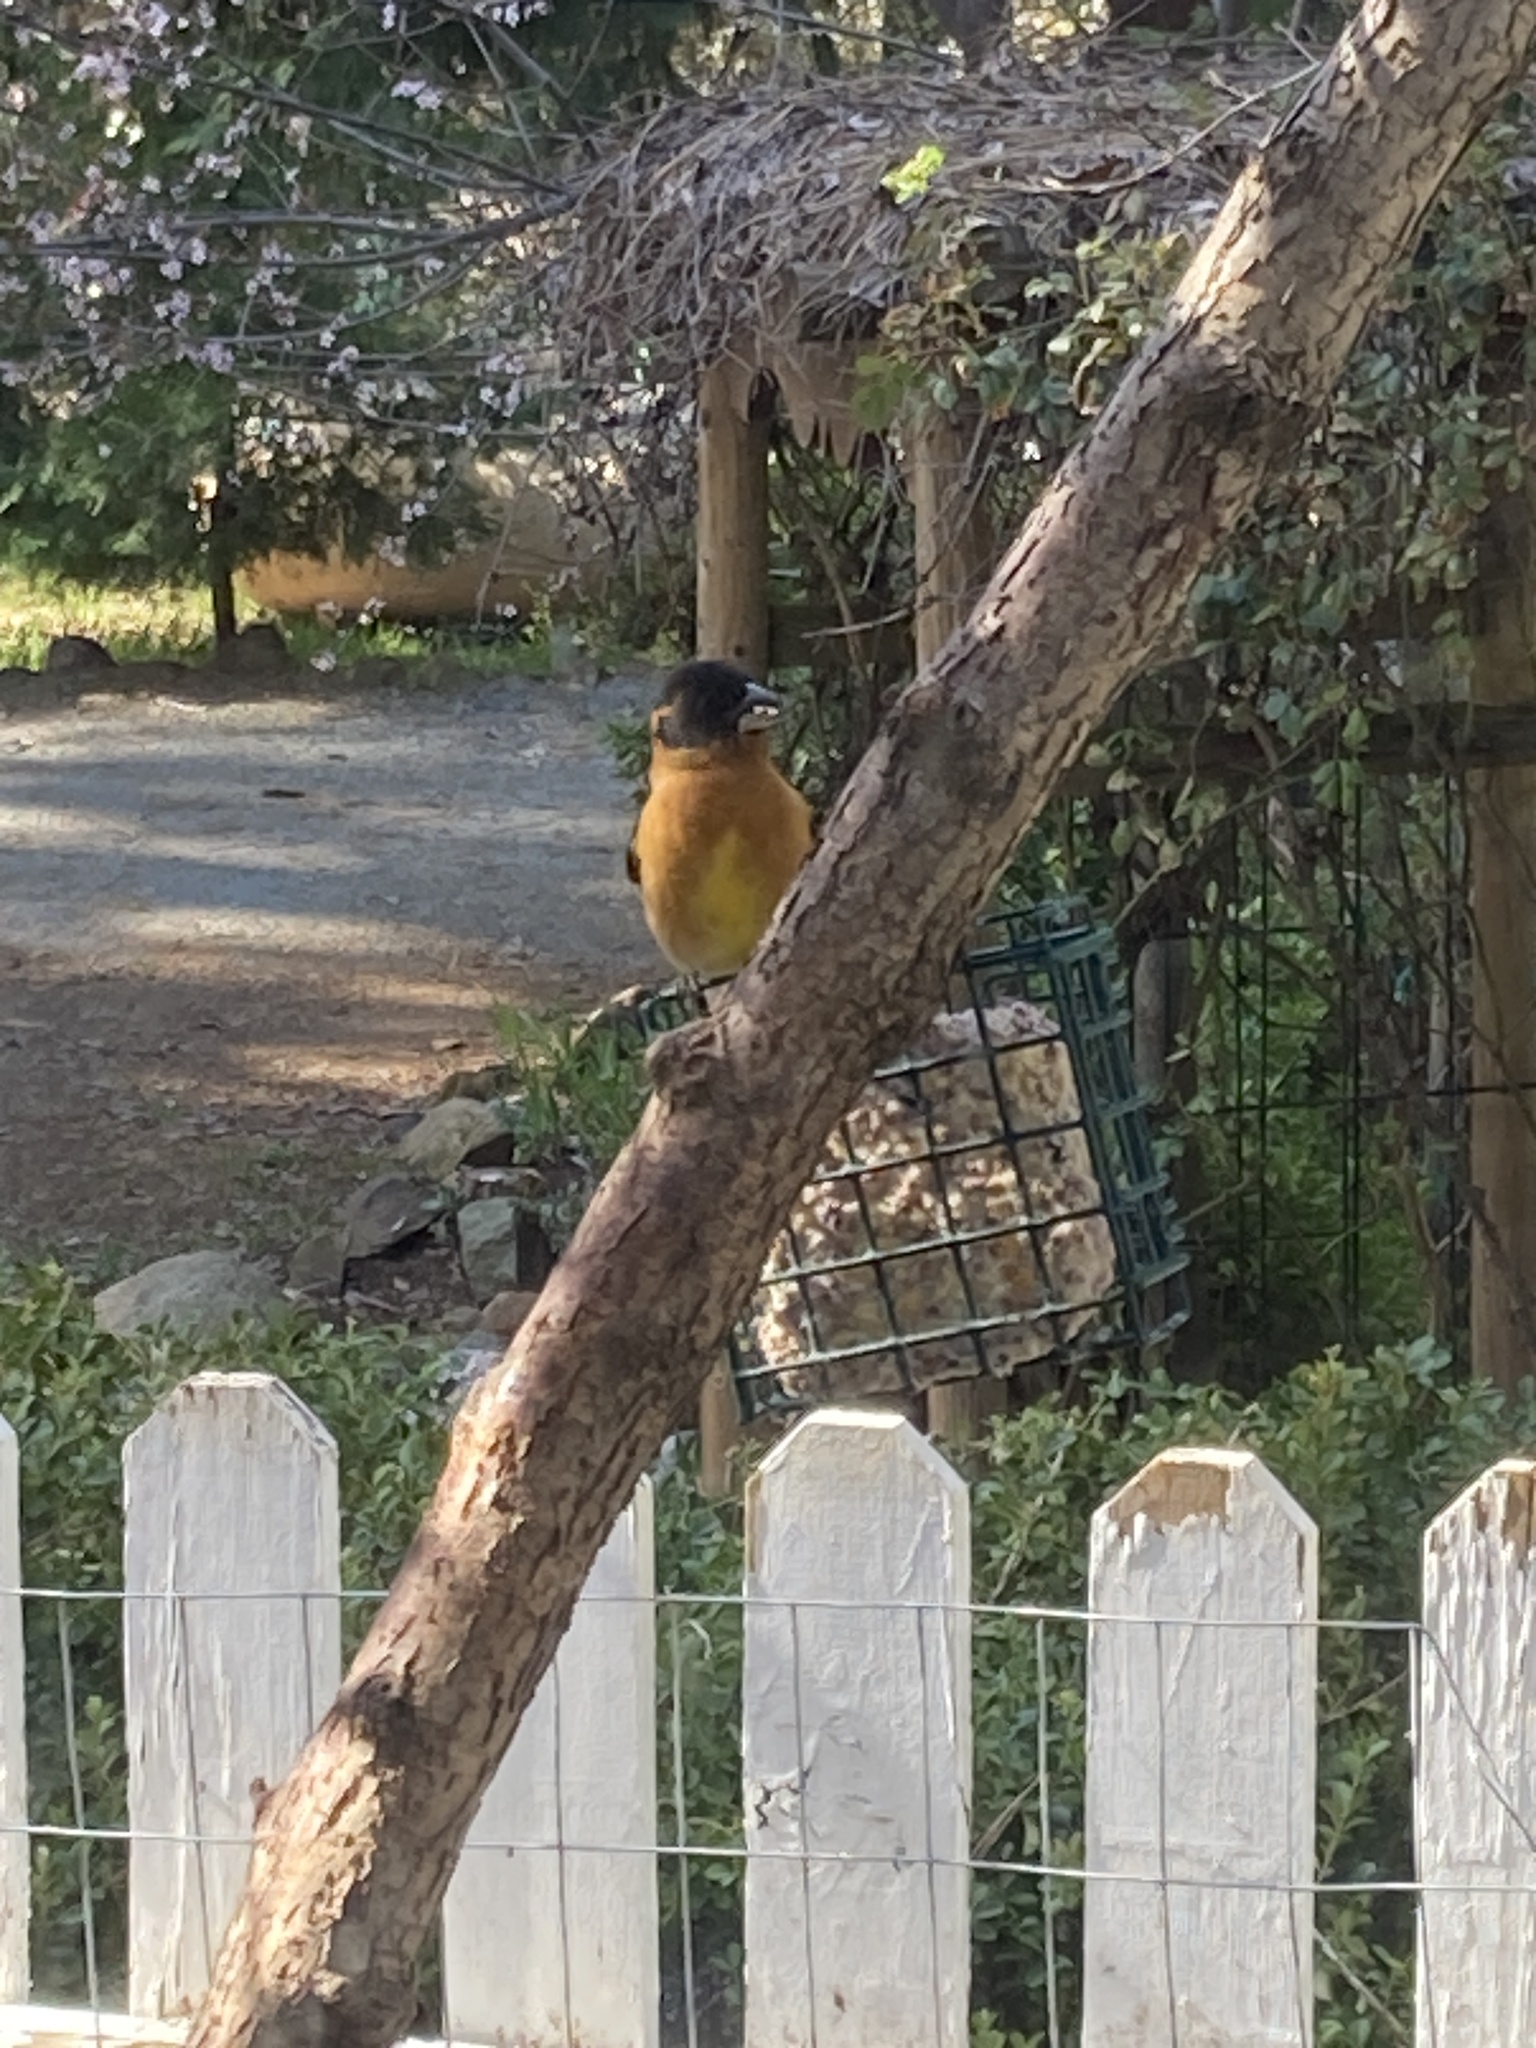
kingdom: Animalia
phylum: Chordata
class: Aves
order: Passeriformes
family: Cardinalidae
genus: Pheucticus
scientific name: Pheucticus melanocephalus
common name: Black-headed grosbeak
